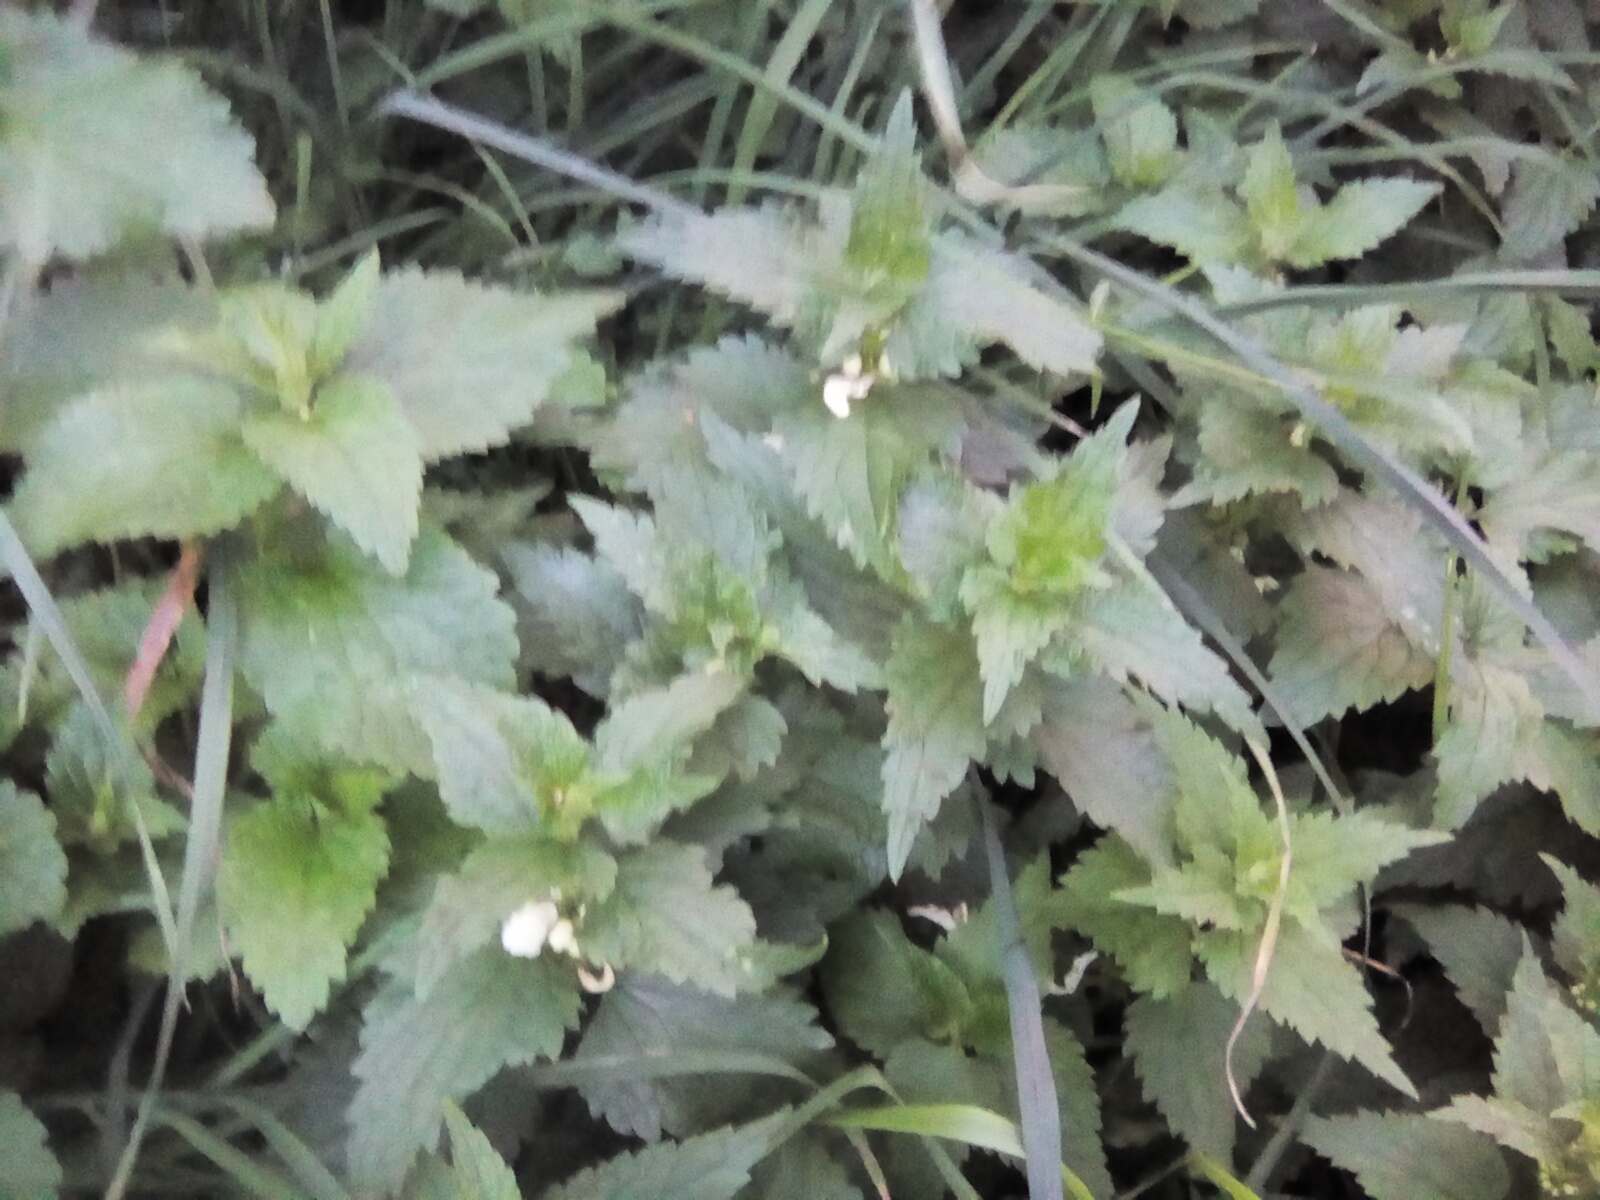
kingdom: Plantae
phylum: Tracheophyta
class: Magnoliopsida
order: Lamiales
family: Lamiaceae
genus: Lamium
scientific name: Lamium album
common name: White dead-nettle
